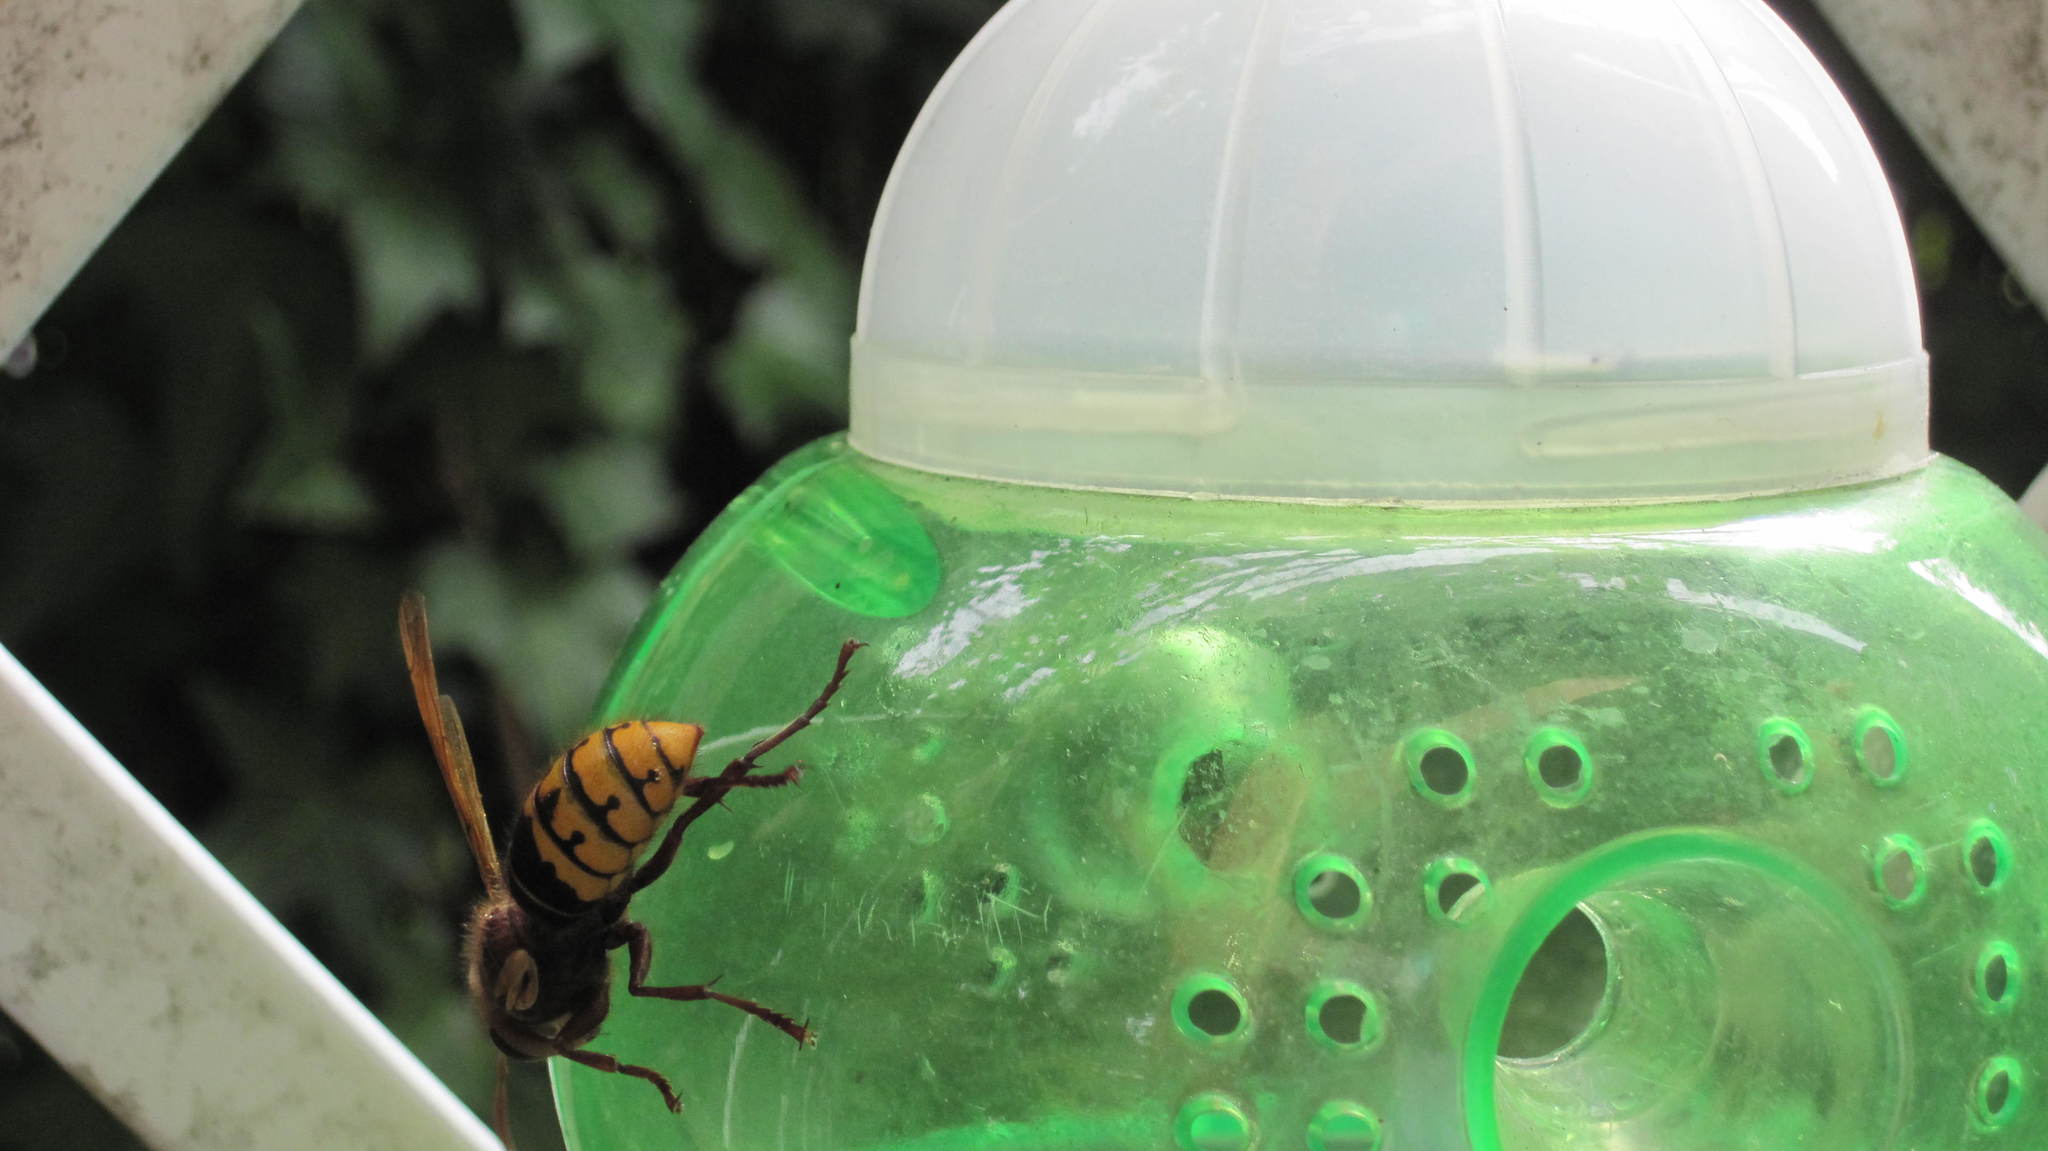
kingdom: Animalia
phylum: Arthropoda
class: Insecta
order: Hymenoptera
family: Vespidae
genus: Vespa
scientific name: Vespa crabro
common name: Hornet
